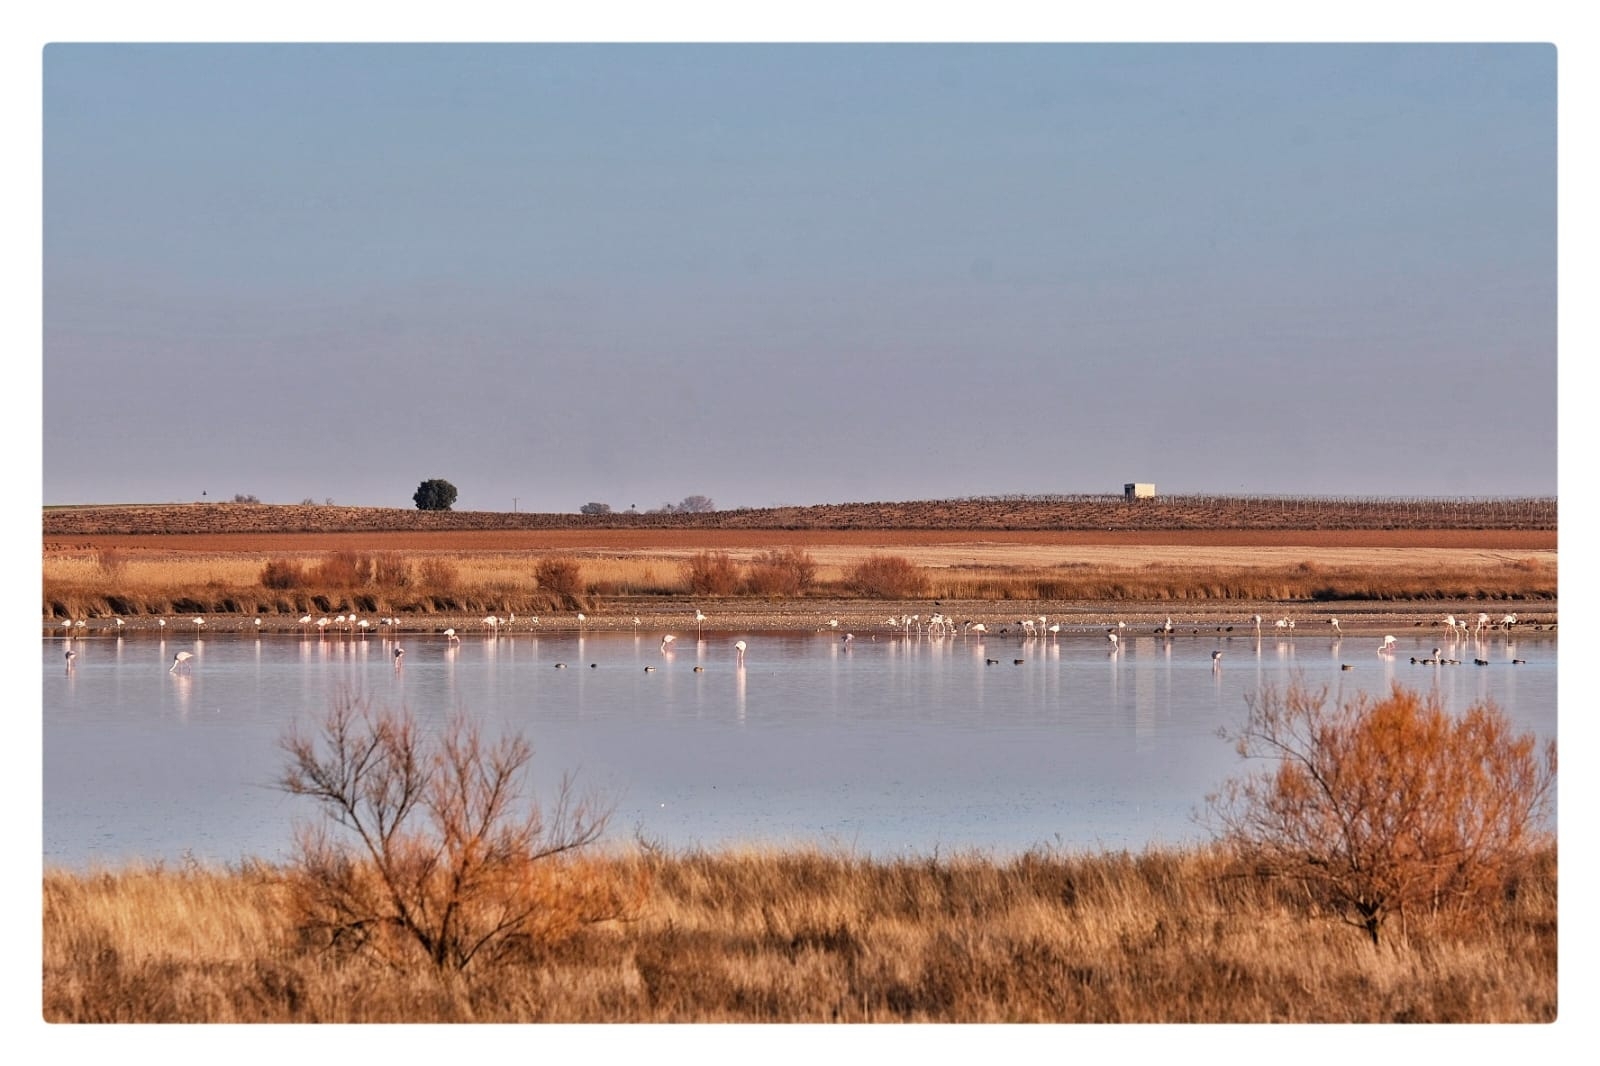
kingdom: Animalia
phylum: Chordata
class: Aves
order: Phoenicopteriformes
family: Phoenicopteridae
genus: Phoenicopterus
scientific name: Phoenicopterus roseus
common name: Greater flamingo
